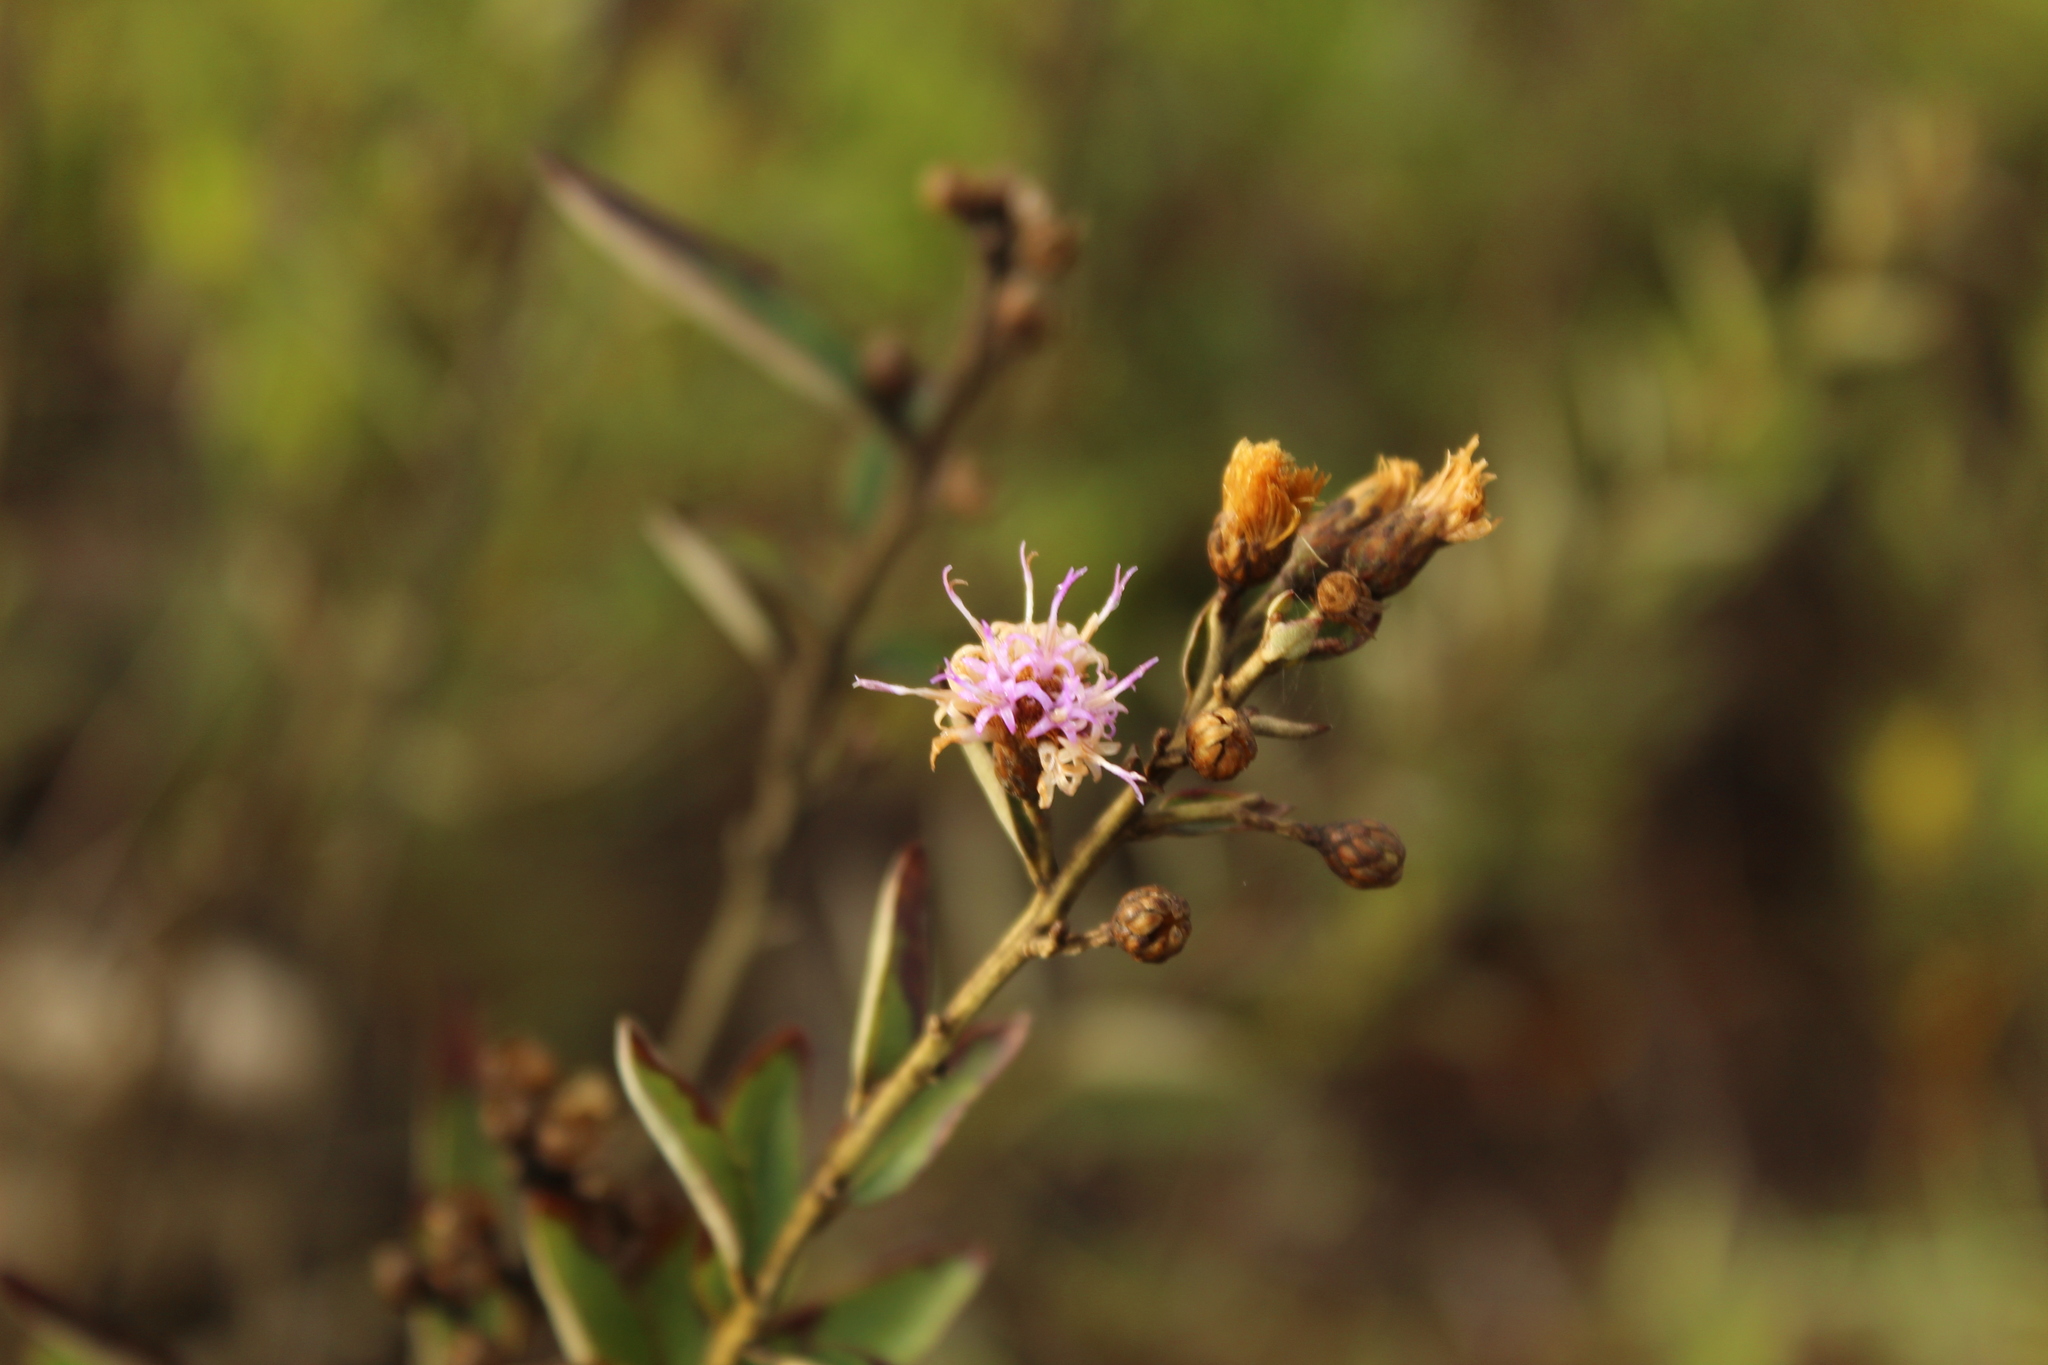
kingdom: Plantae
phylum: Tracheophyta
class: Magnoliopsida
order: Asterales
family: Asteraceae
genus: Lepidaploa
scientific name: Lepidaploa karstenii
